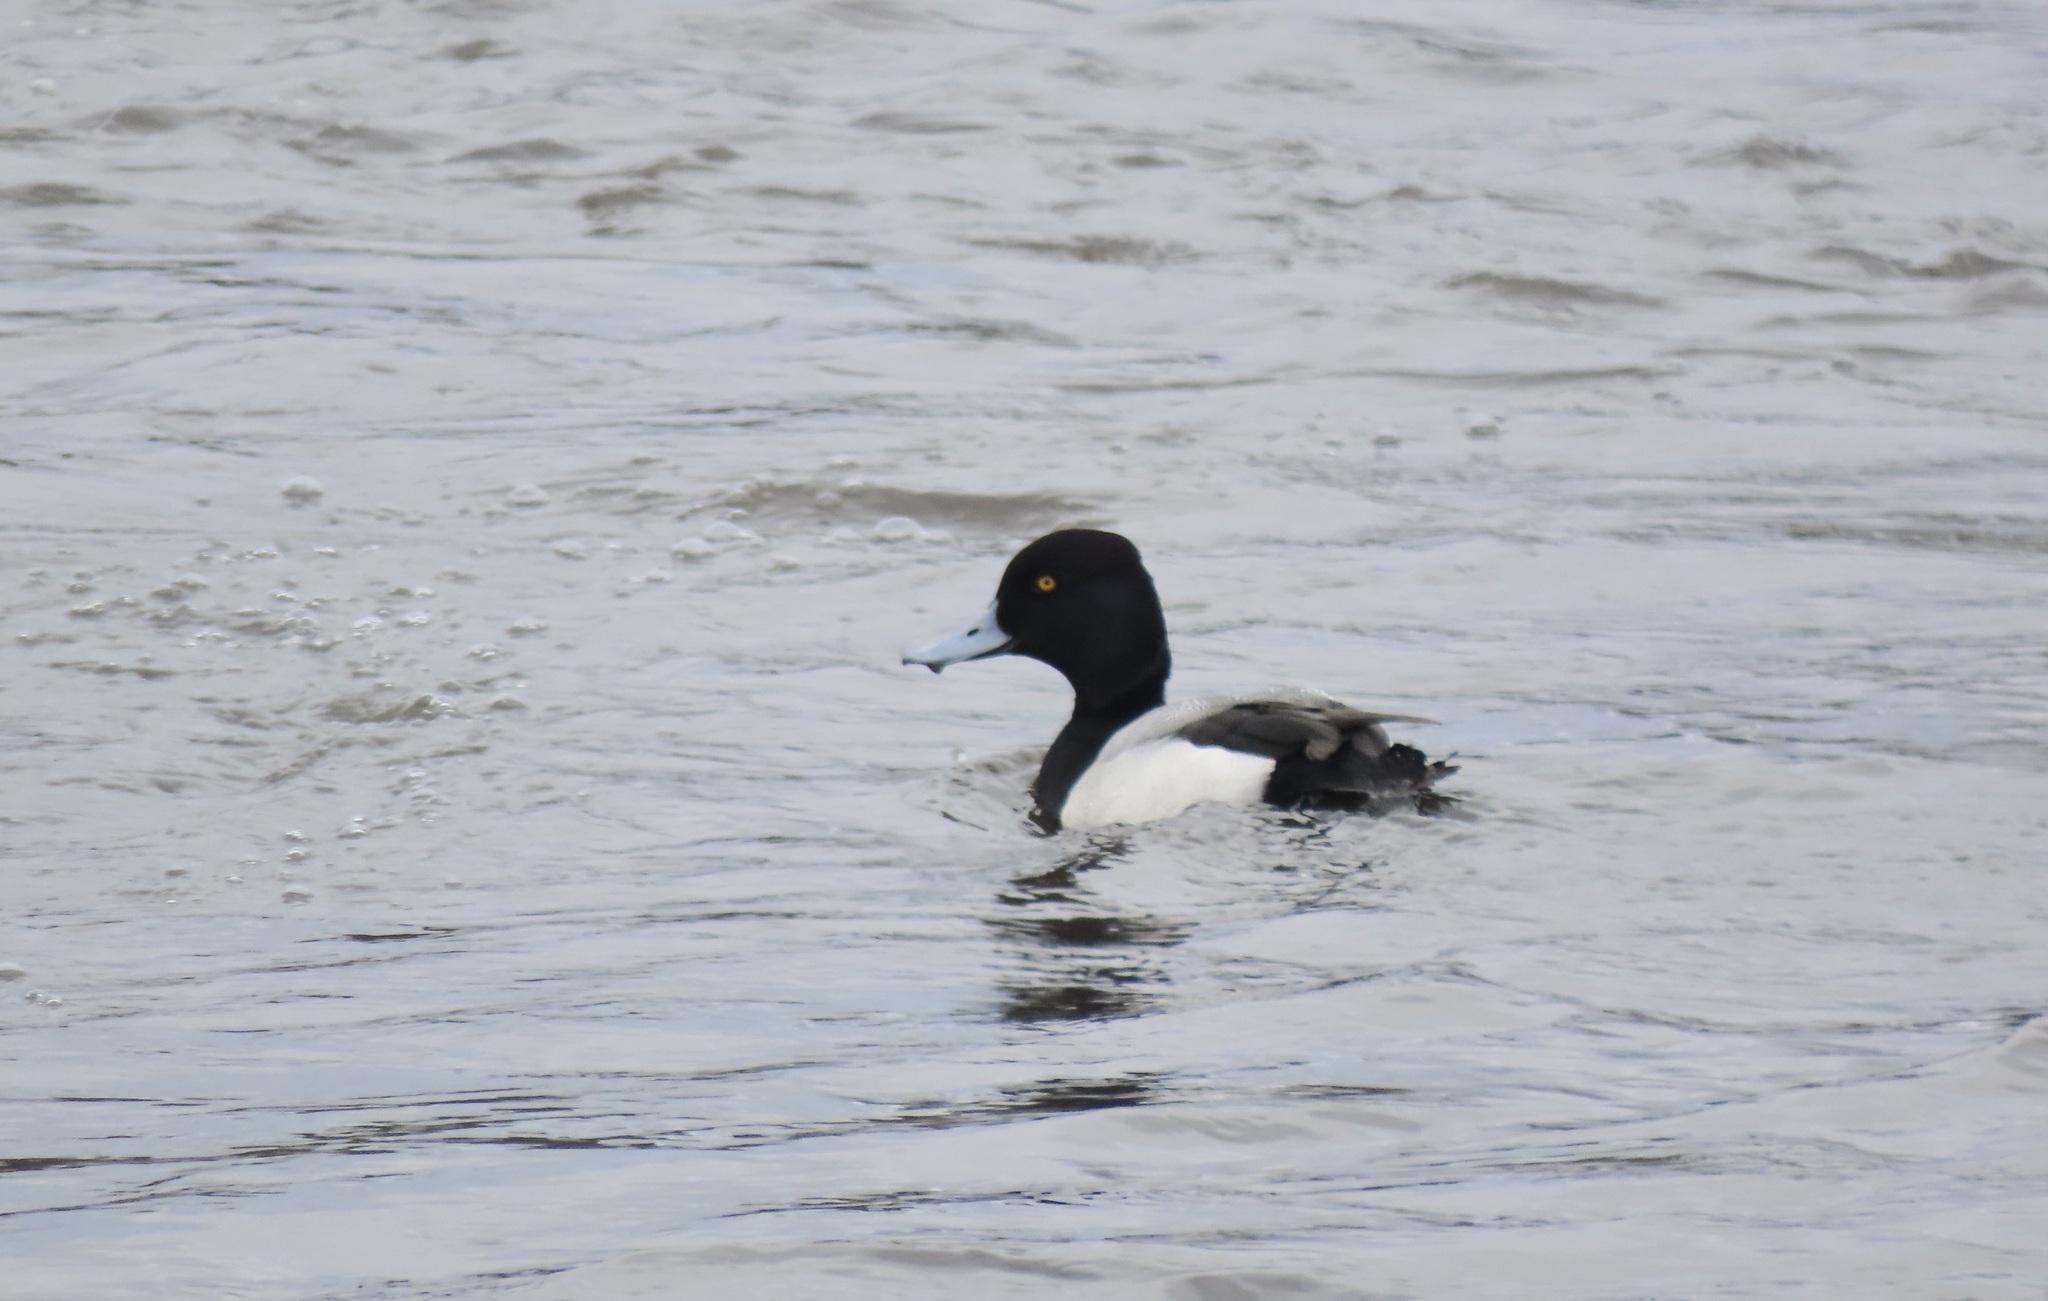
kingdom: Animalia
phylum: Chordata
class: Aves
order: Anseriformes
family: Anatidae
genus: Aythya
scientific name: Aythya affinis
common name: Lesser scaup
